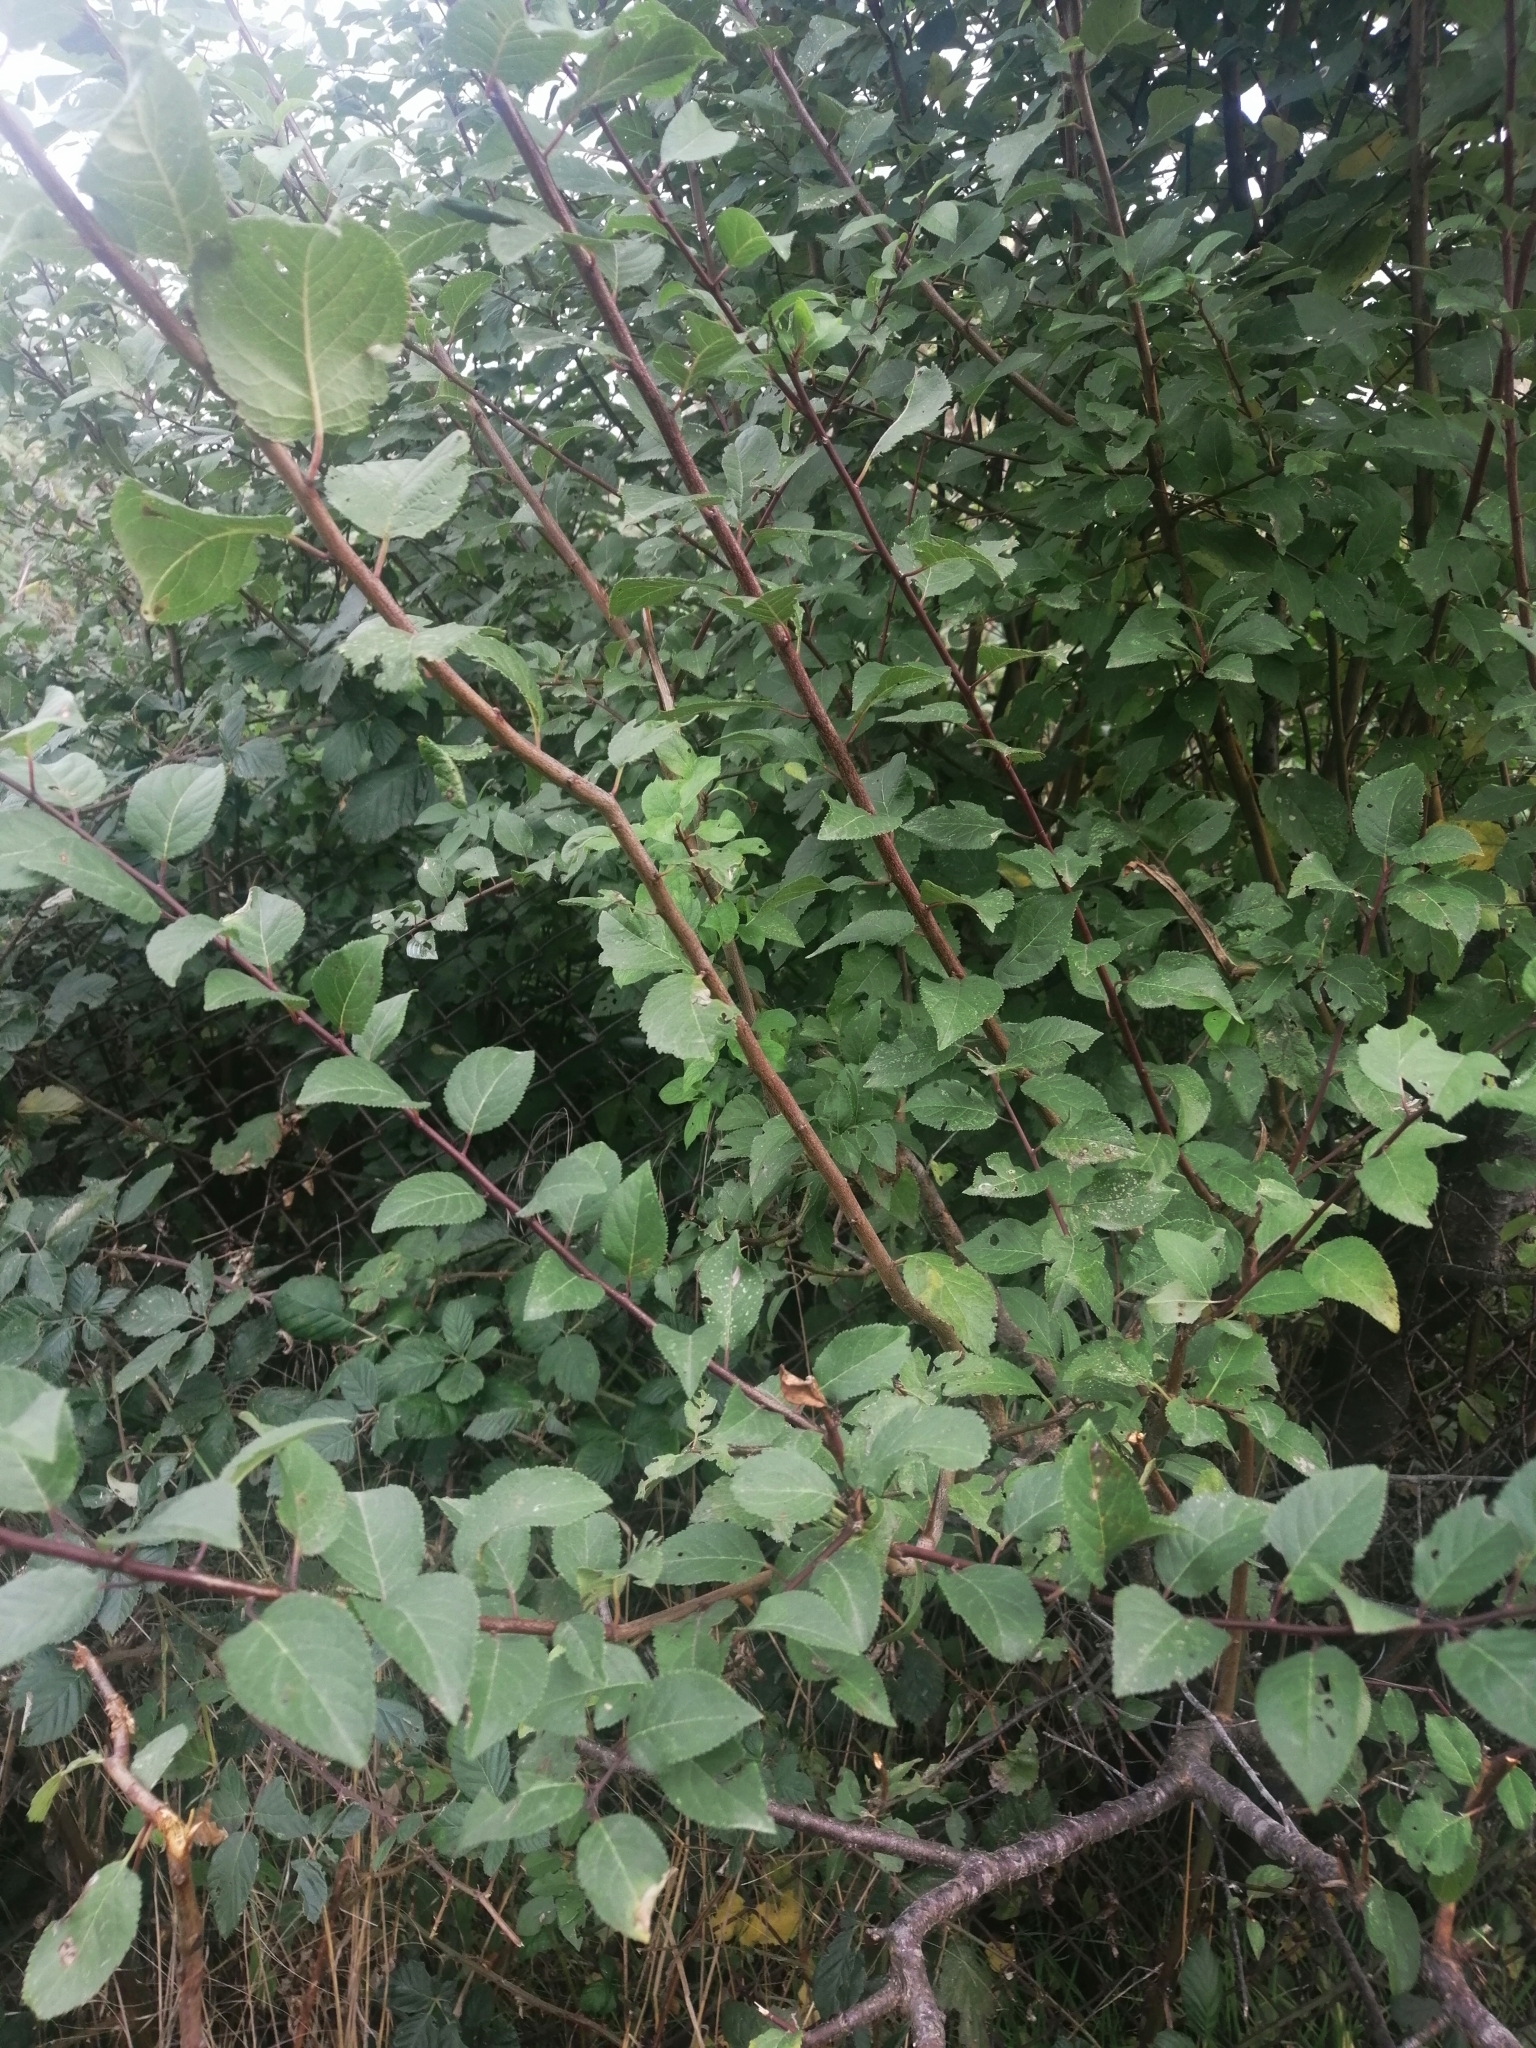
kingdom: Plantae
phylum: Tracheophyta
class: Magnoliopsida
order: Rosales
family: Rosaceae
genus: Prunus
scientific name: Prunus cerasifera
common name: Cherry plum
